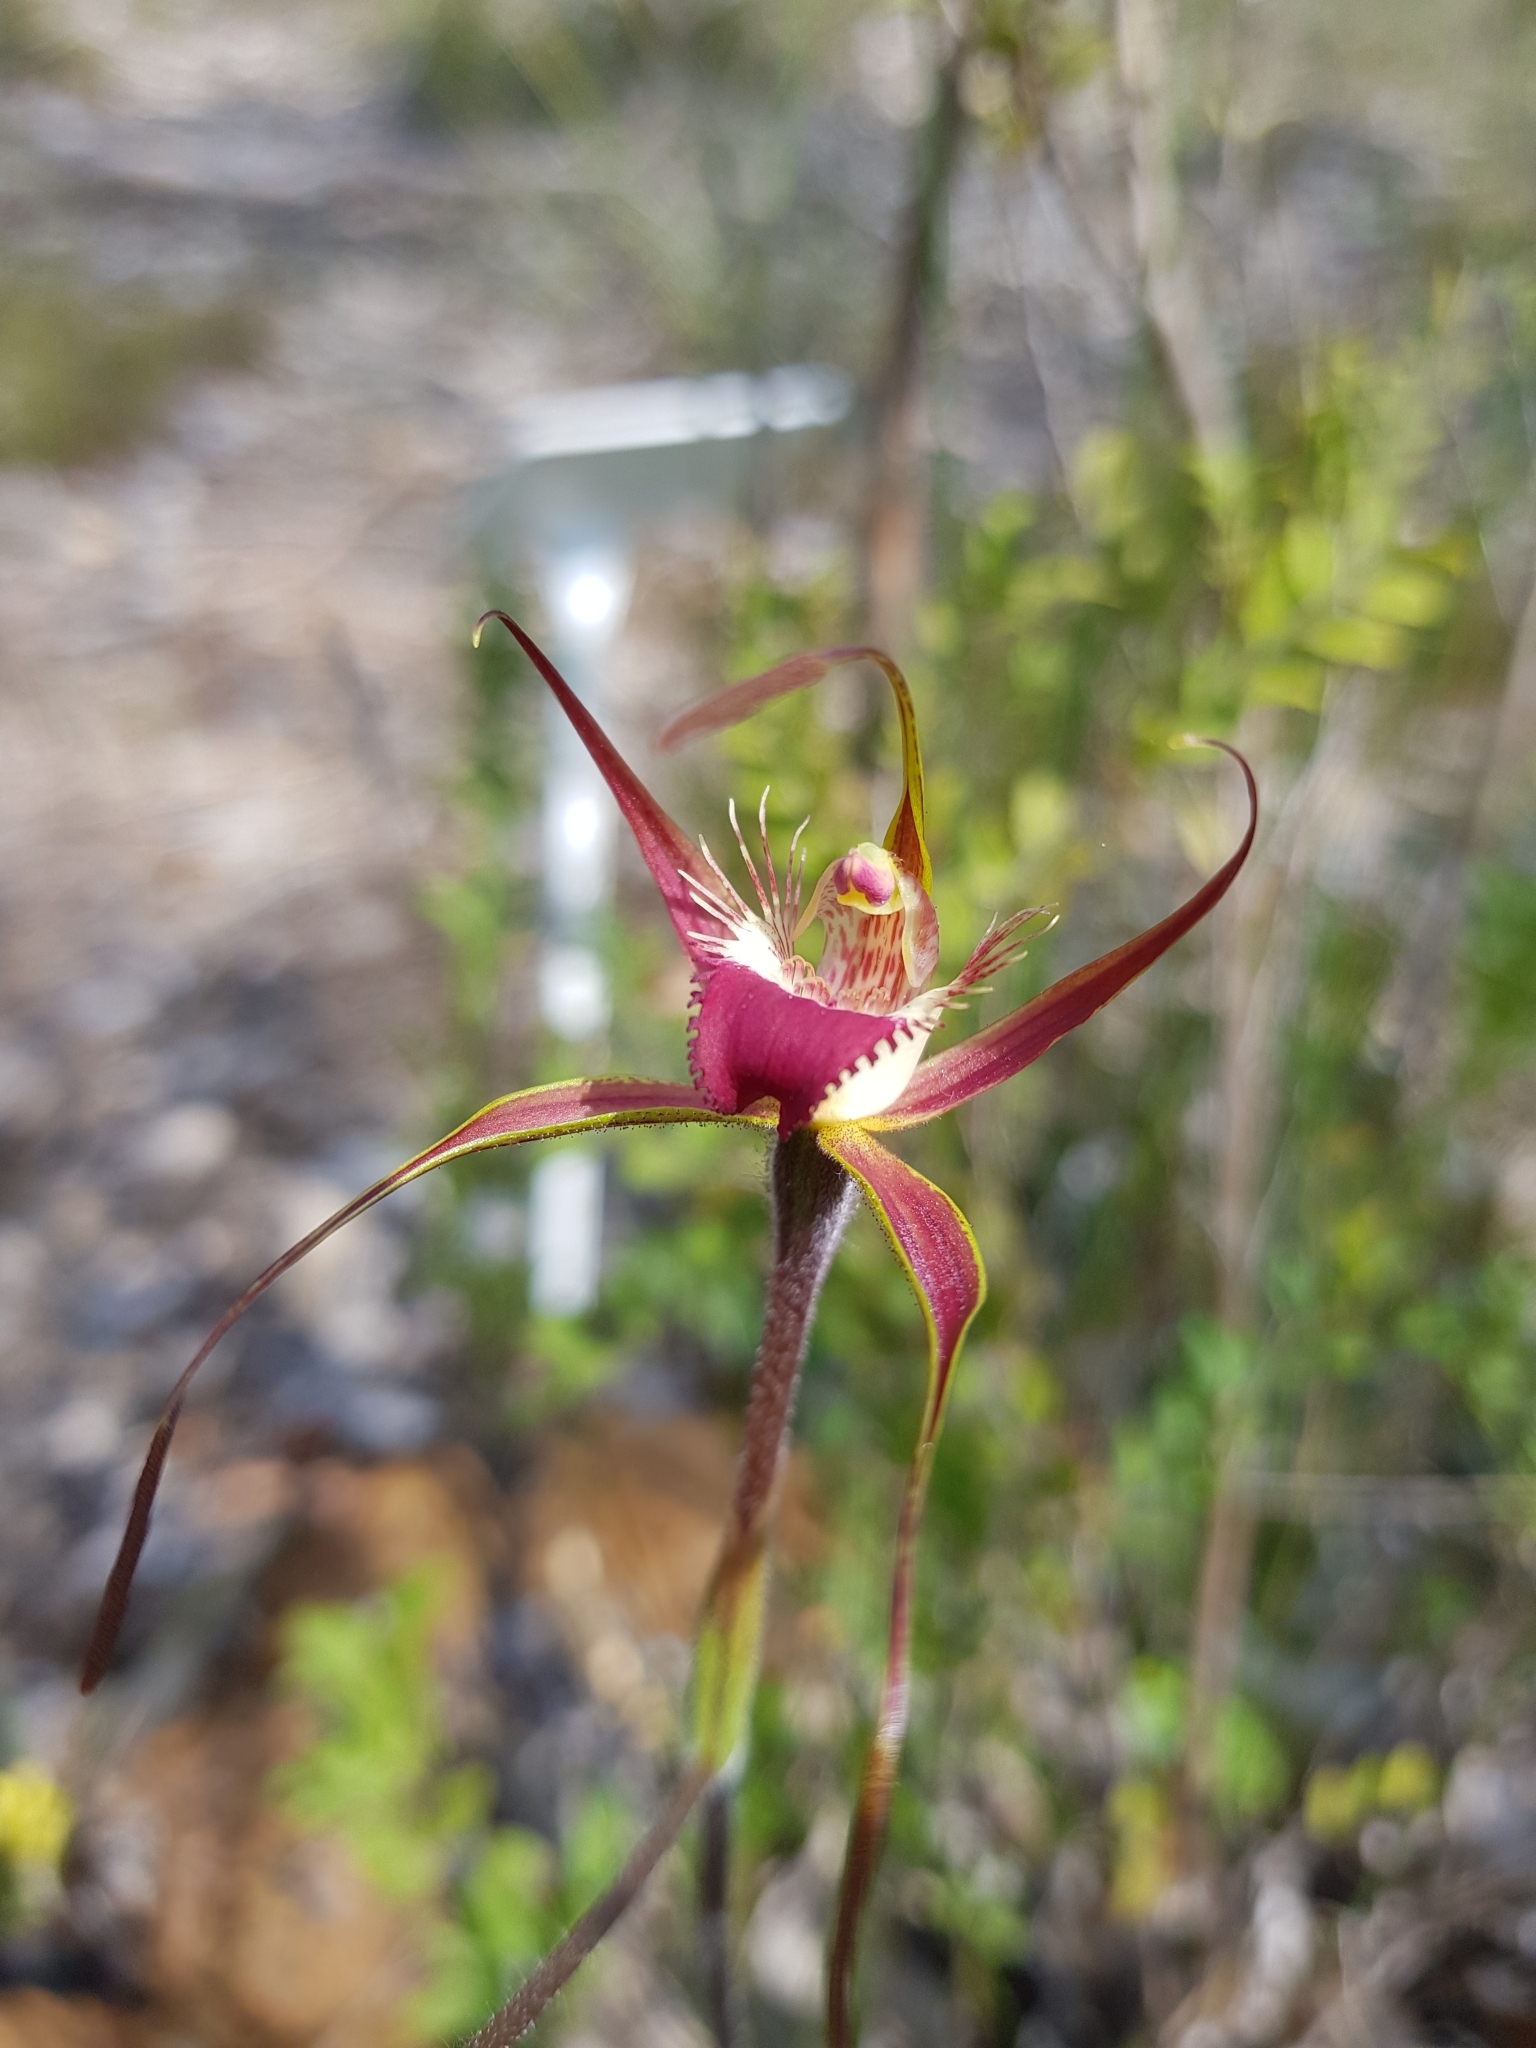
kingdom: Plantae
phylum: Tracheophyta
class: Liliopsida
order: Asparagales
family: Orchidaceae
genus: Caladenia
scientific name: Caladenia ferruginea
